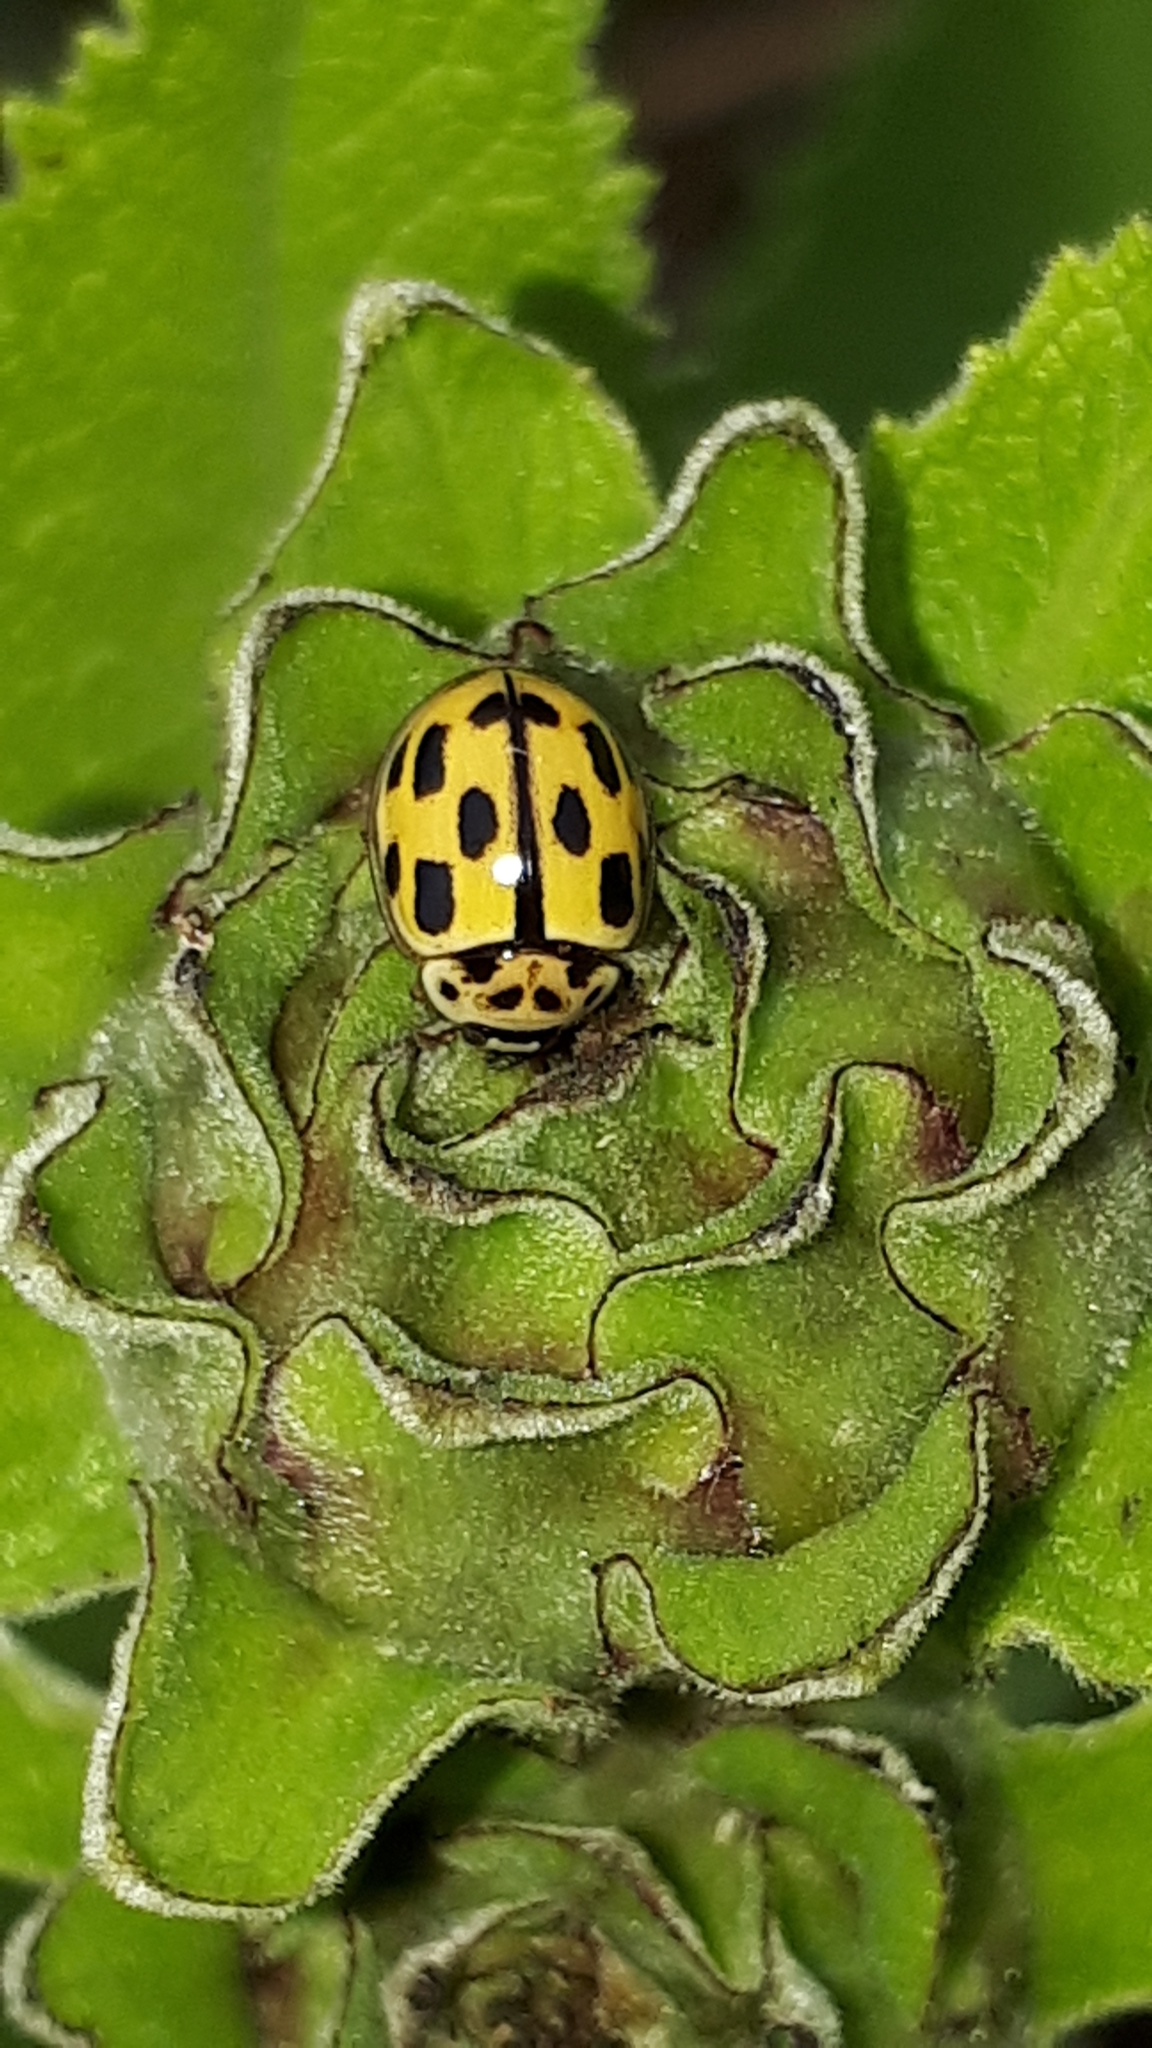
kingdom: Animalia
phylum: Arthropoda
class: Insecta
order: Coleoptera
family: Coccinellidae
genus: Propylaea
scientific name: Propylaea quatuordecimpunctata
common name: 14-spotted ladybird beetle
